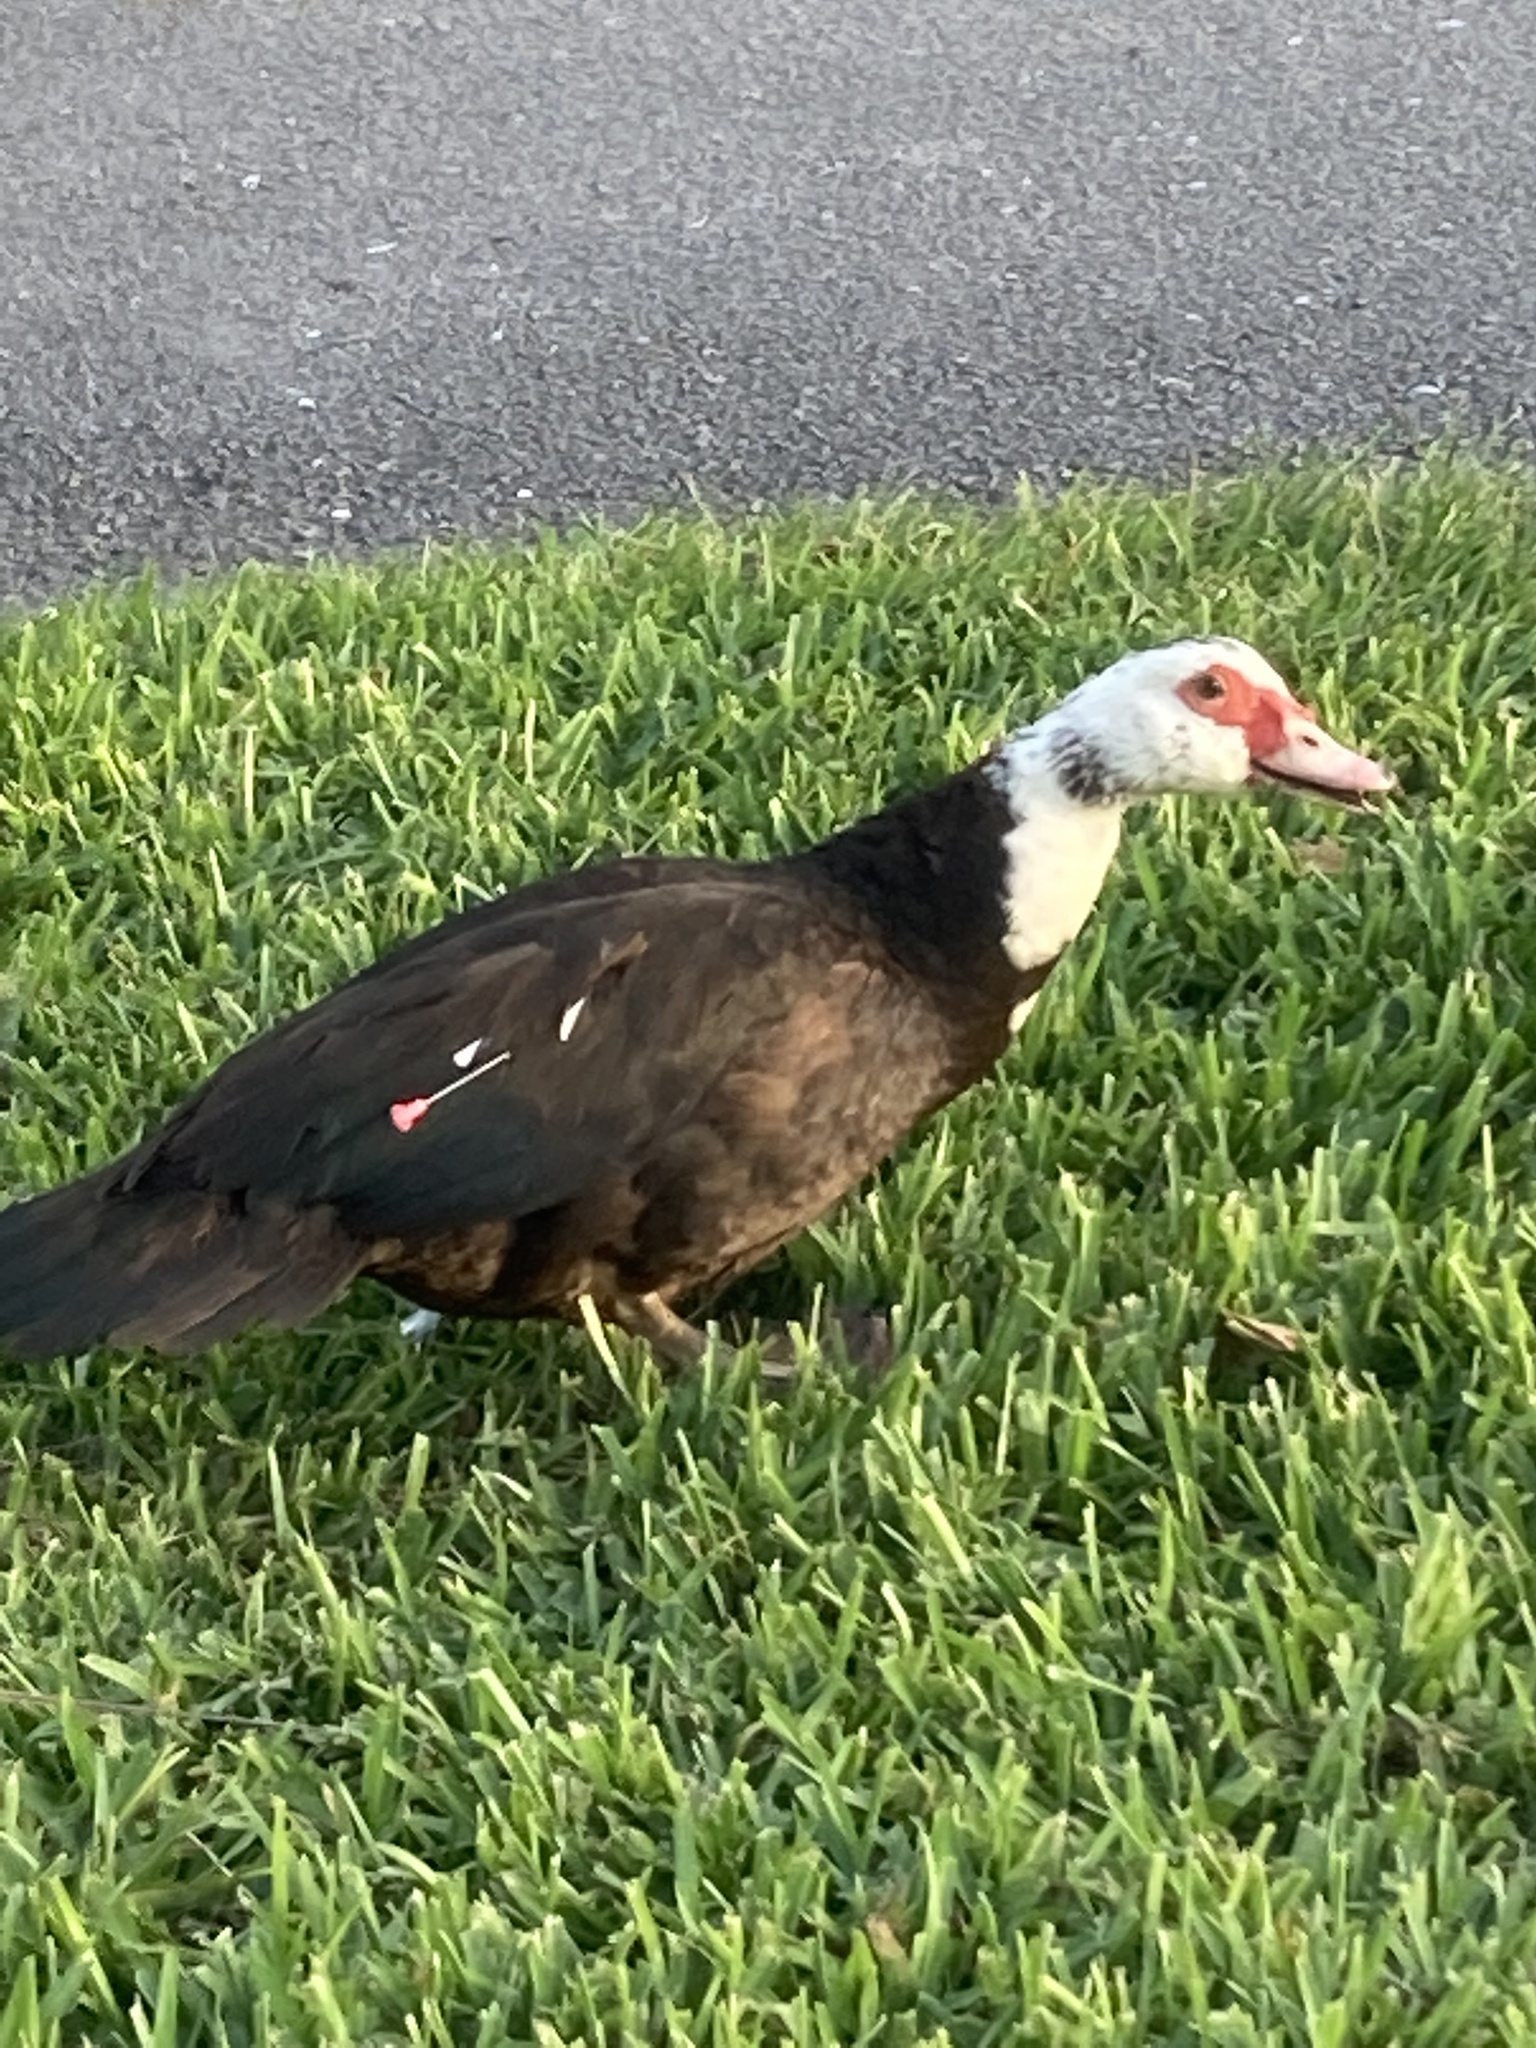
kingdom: Animalia
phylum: Chordata
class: Aves
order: Anseriformes
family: Anatidae
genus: Cairina
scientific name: Cairina moschata
